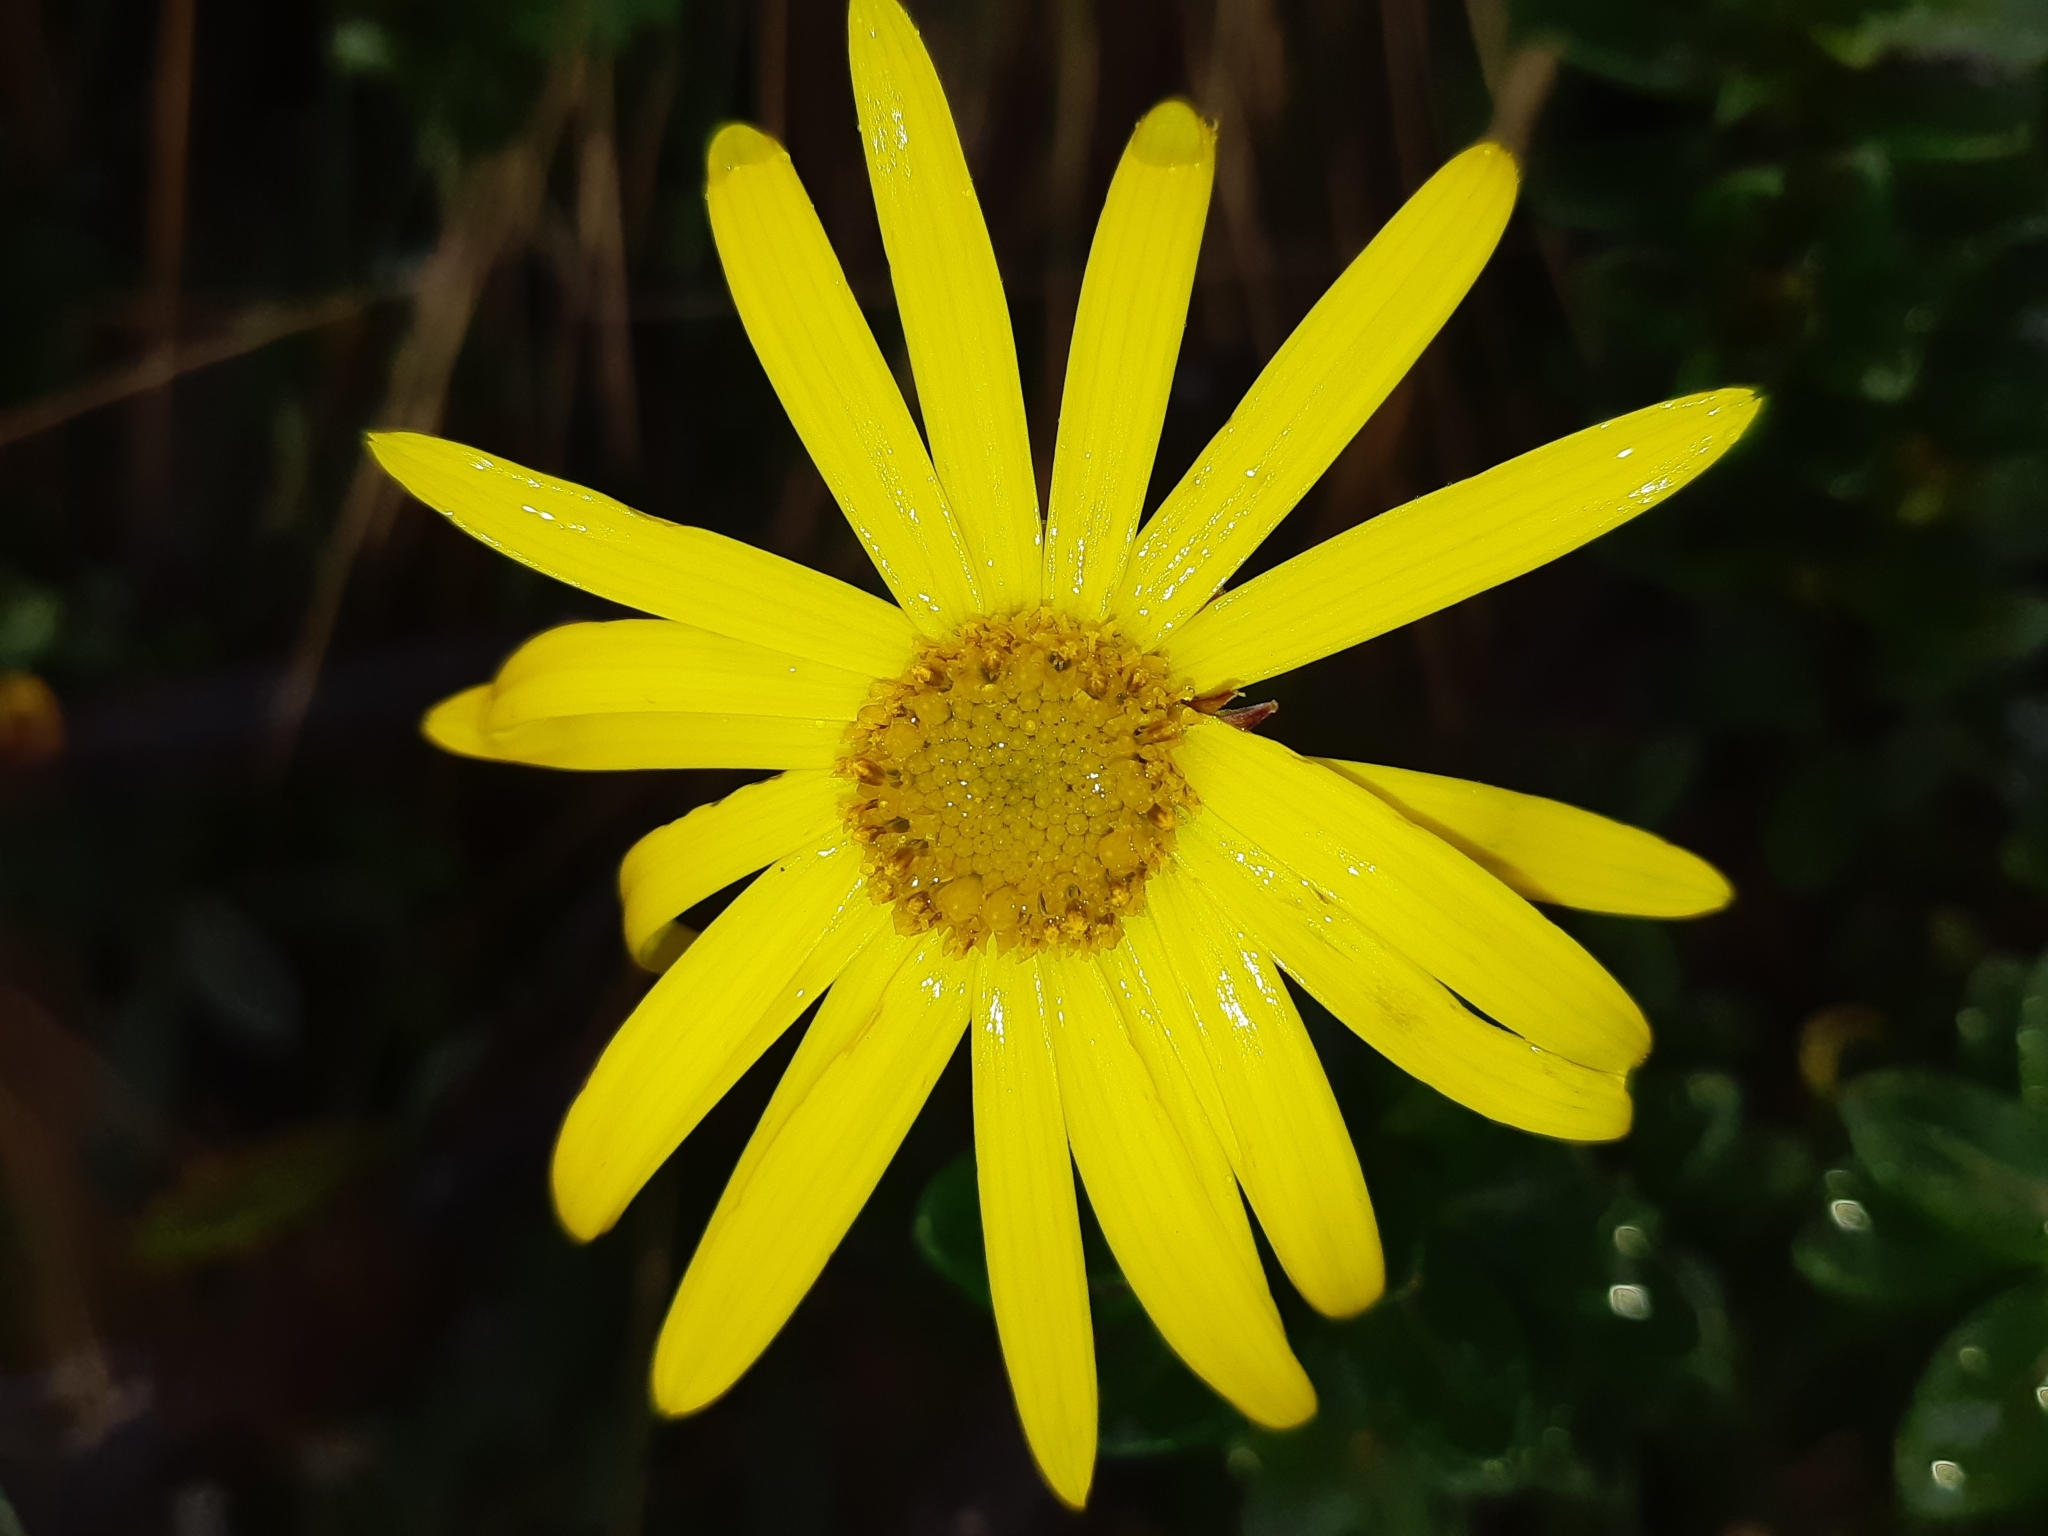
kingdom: Plantae
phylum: Tracheophyta
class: Magnoliopsida
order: Asterales
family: Asteraceae
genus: Dorobaea
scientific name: Dorobaea pimpinellifolia
